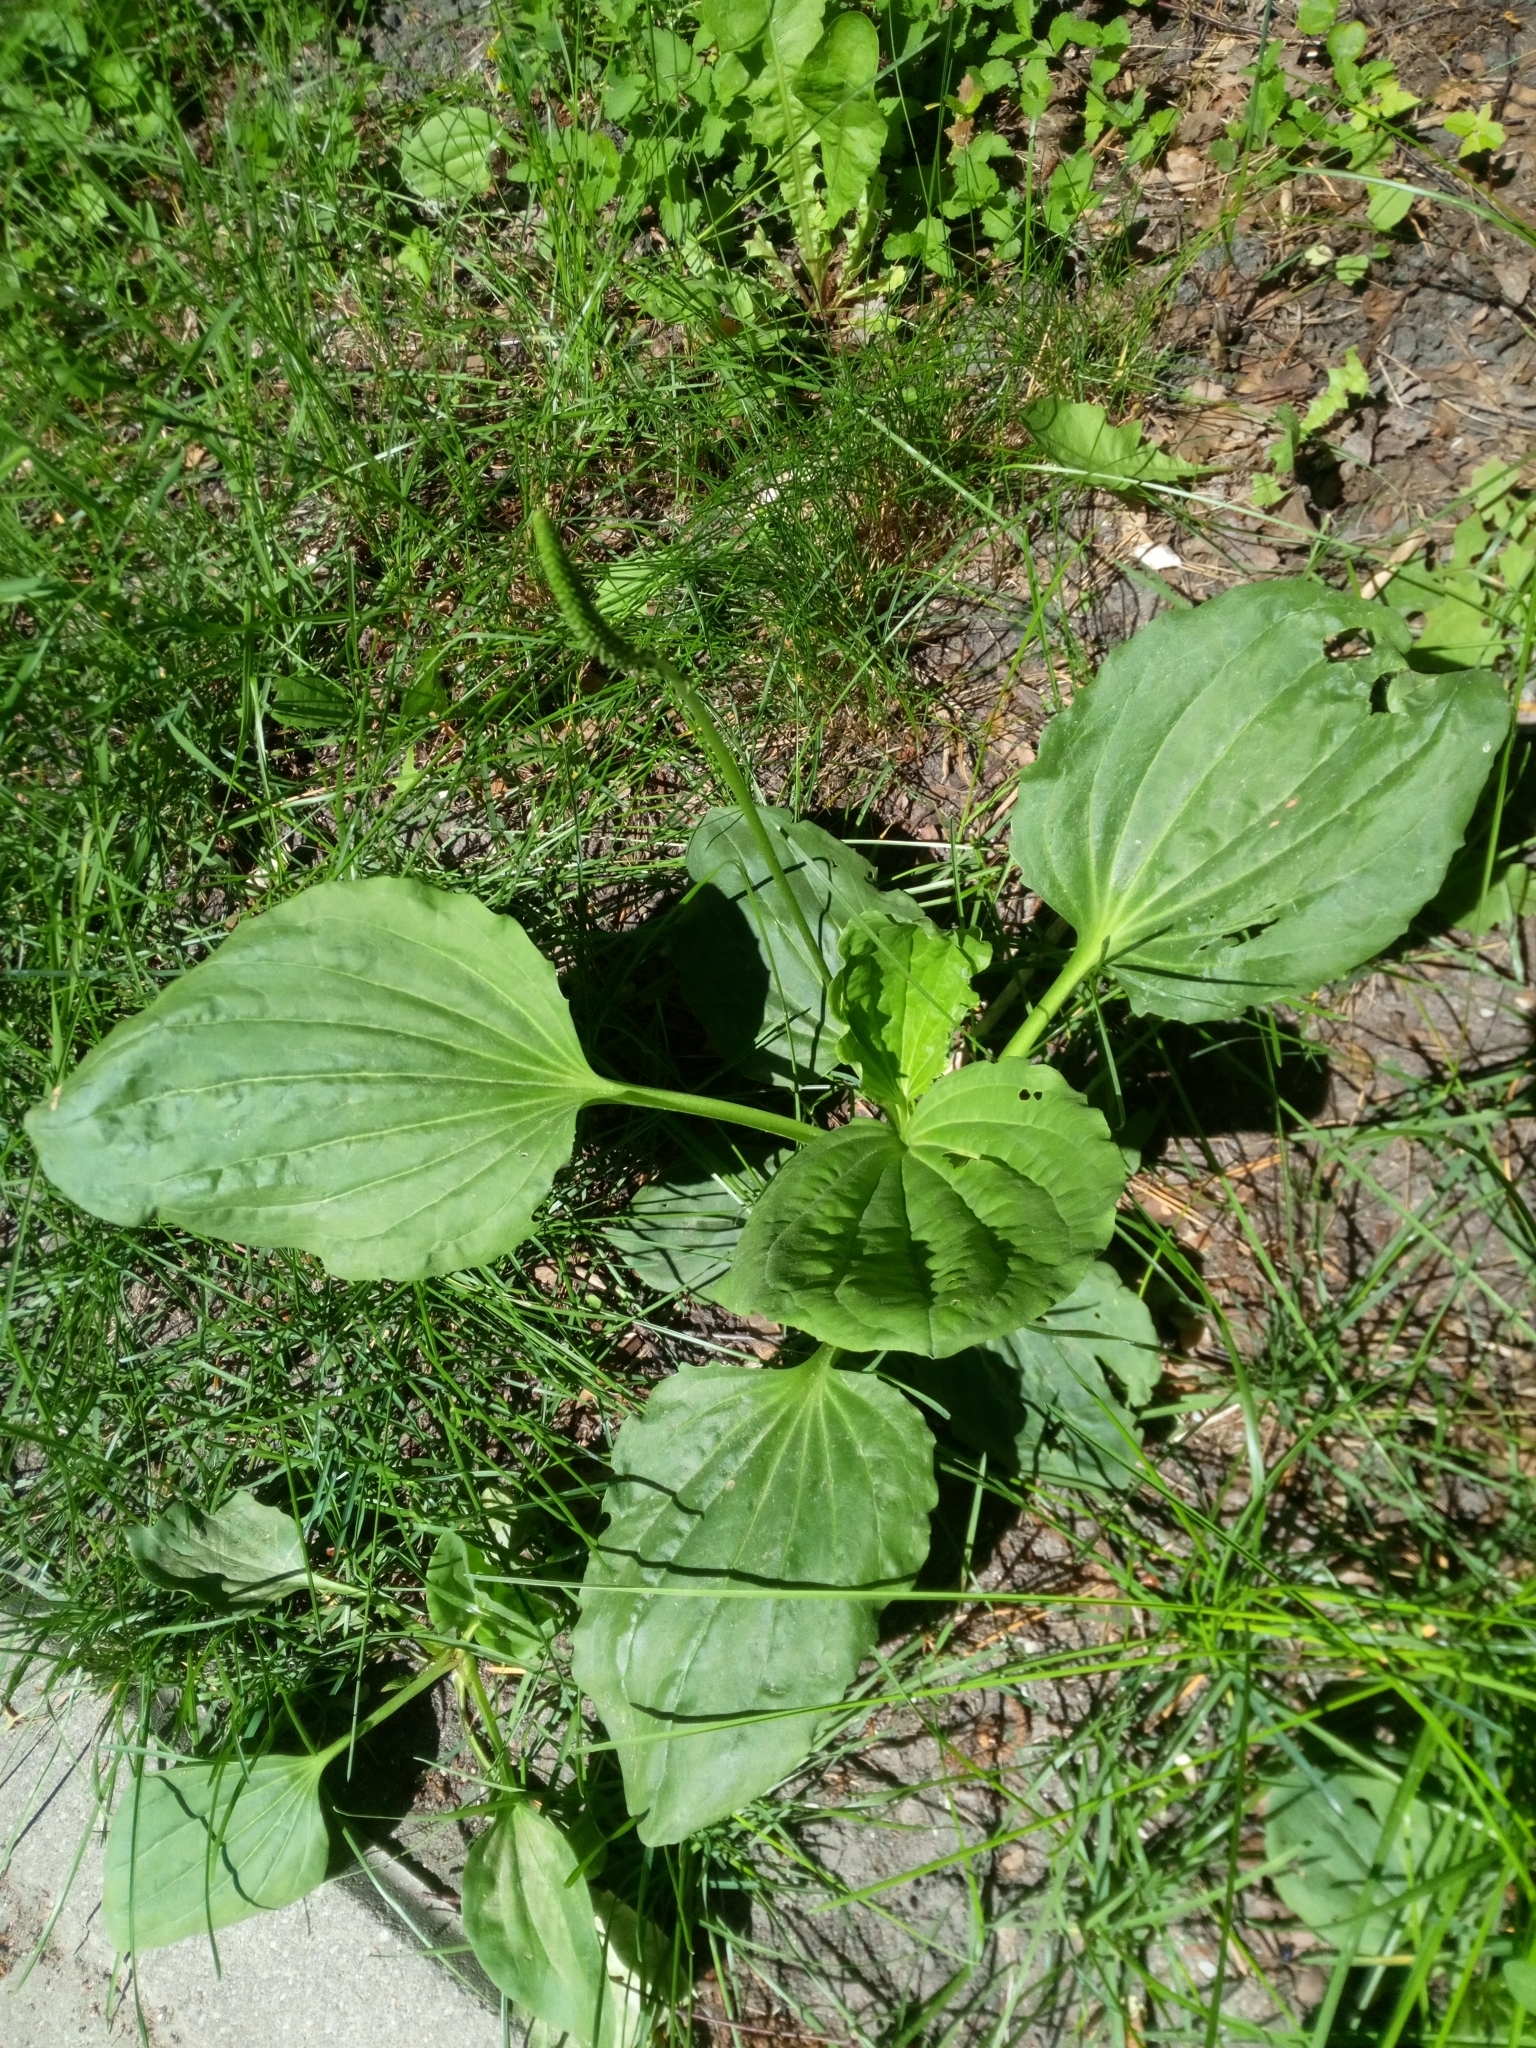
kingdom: Plantae
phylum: Tracheophyta
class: Magnoliopsida
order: Lamiales
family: Plantaginaceae
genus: Plantago
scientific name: Plantago major
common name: Common plantain
